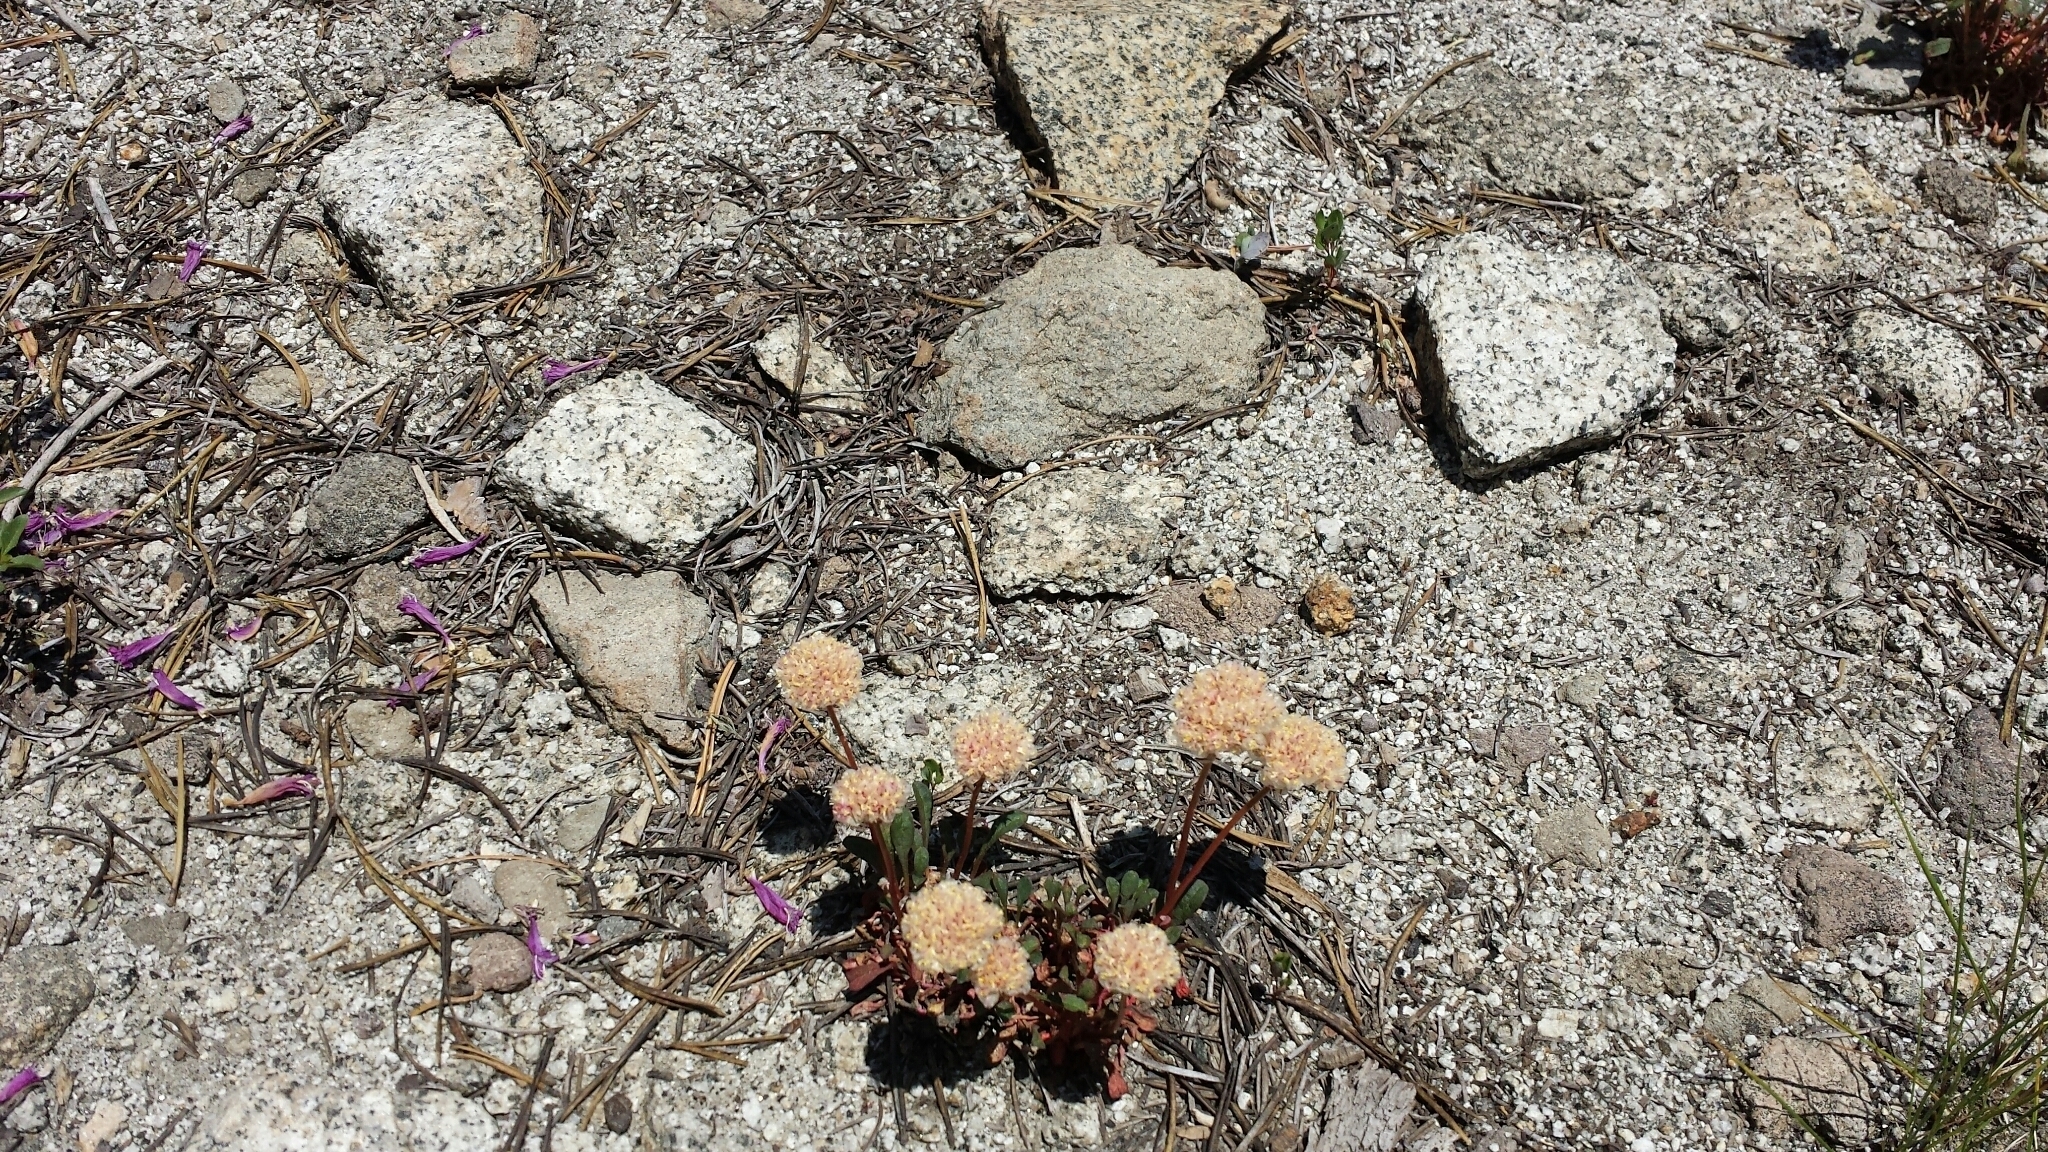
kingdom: Plantae
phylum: Tracheophyta
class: Magnoliopsida
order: Caryophyllales
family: Montiaceae
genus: Calyptridium
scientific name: Calyptridium monospermum
